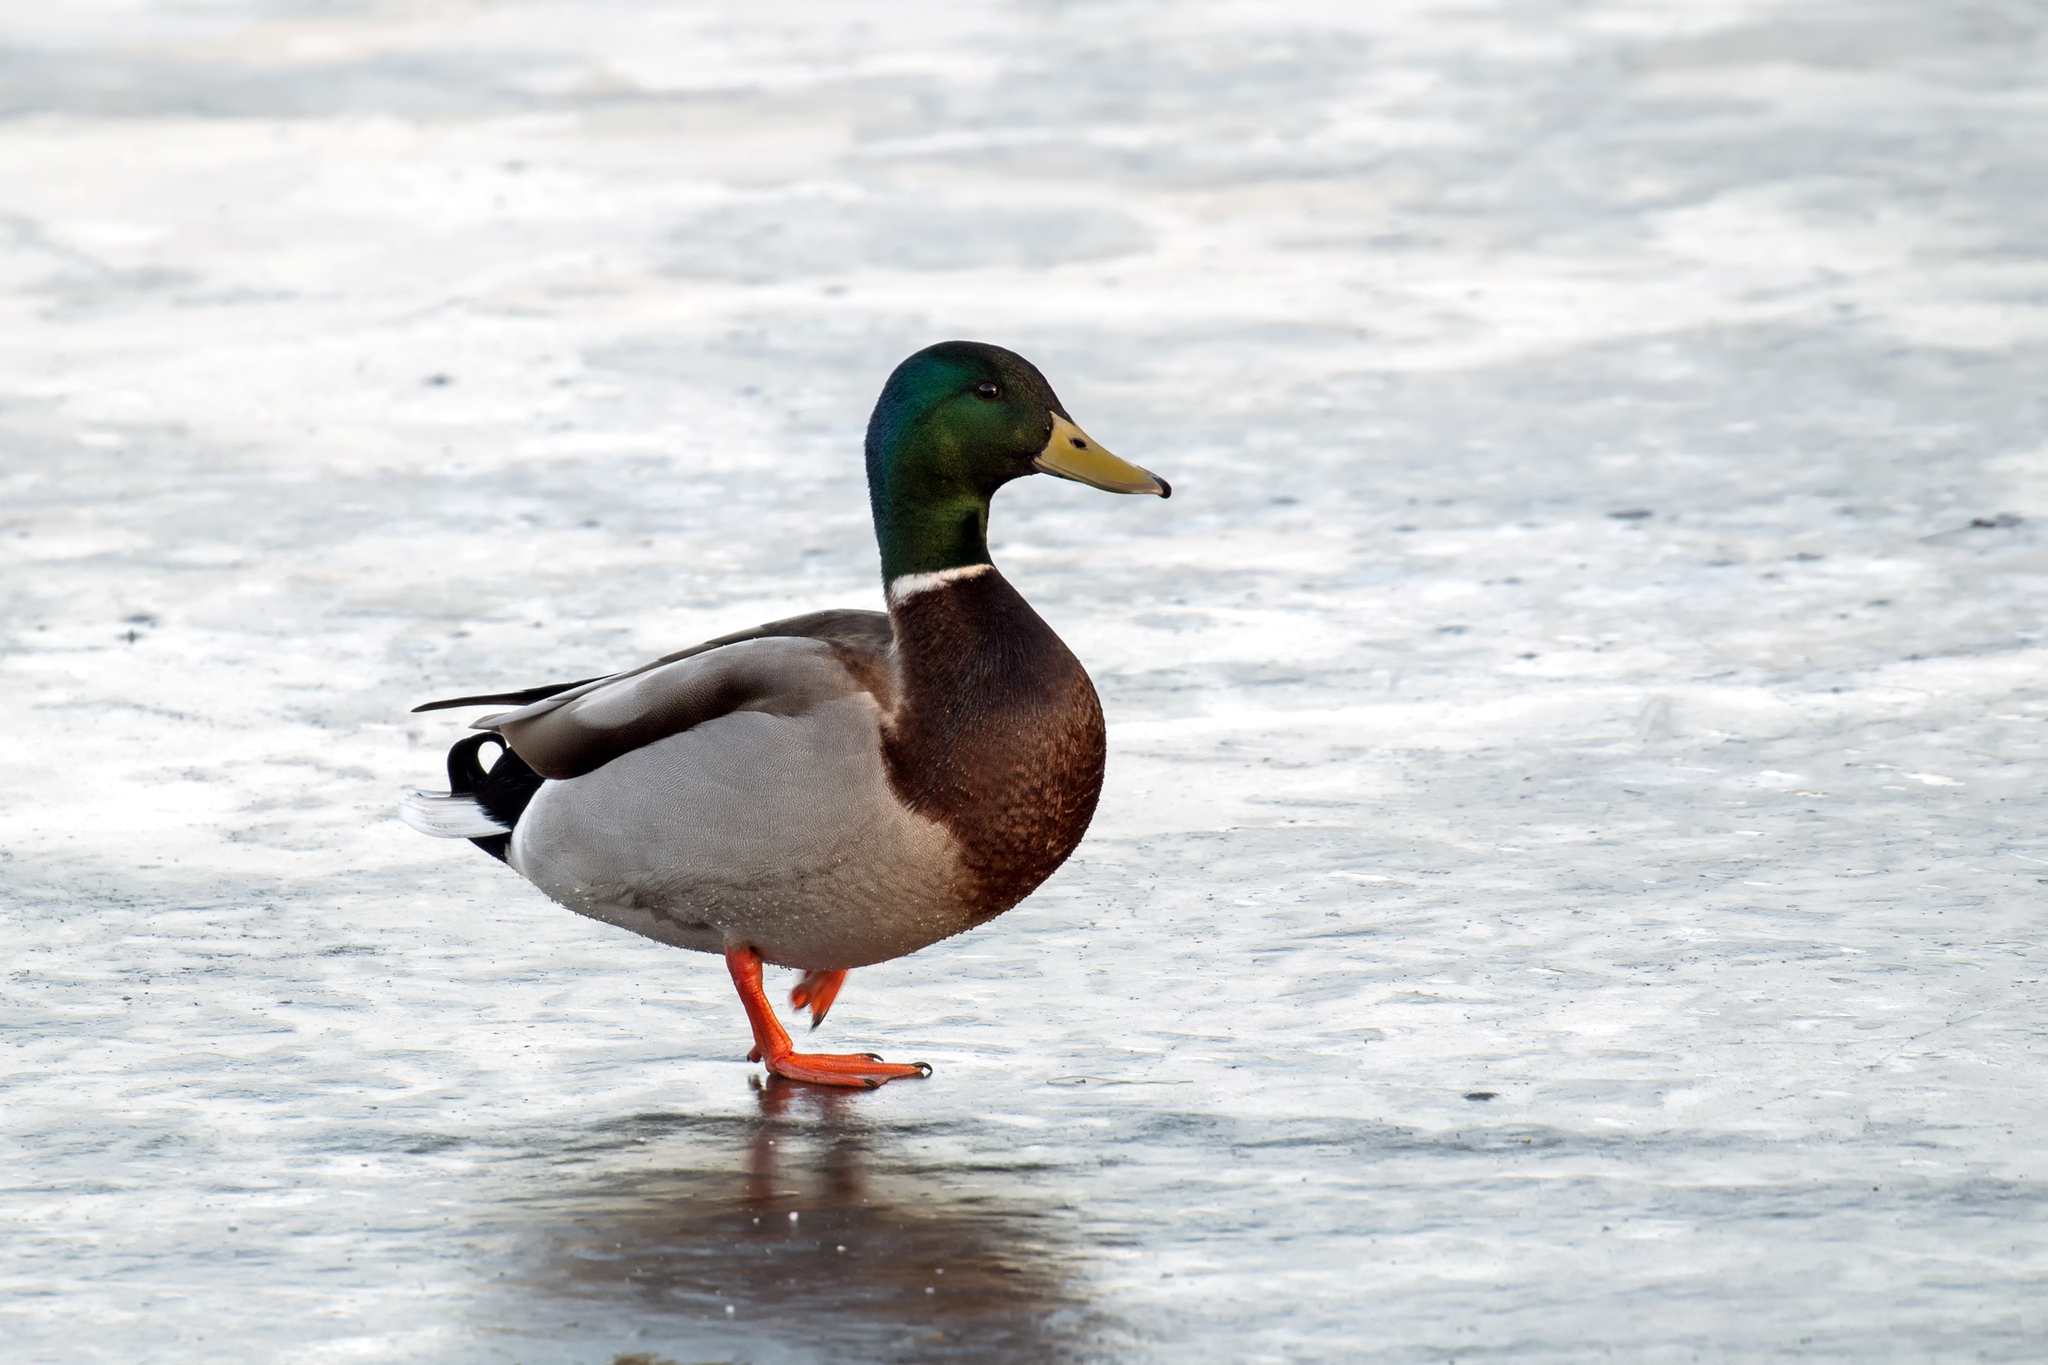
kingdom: Animalia
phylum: Chordata
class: Aves
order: Anseriformes
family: Anatidae
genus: Anas
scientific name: Anas platyrhynchos
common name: Mallard
